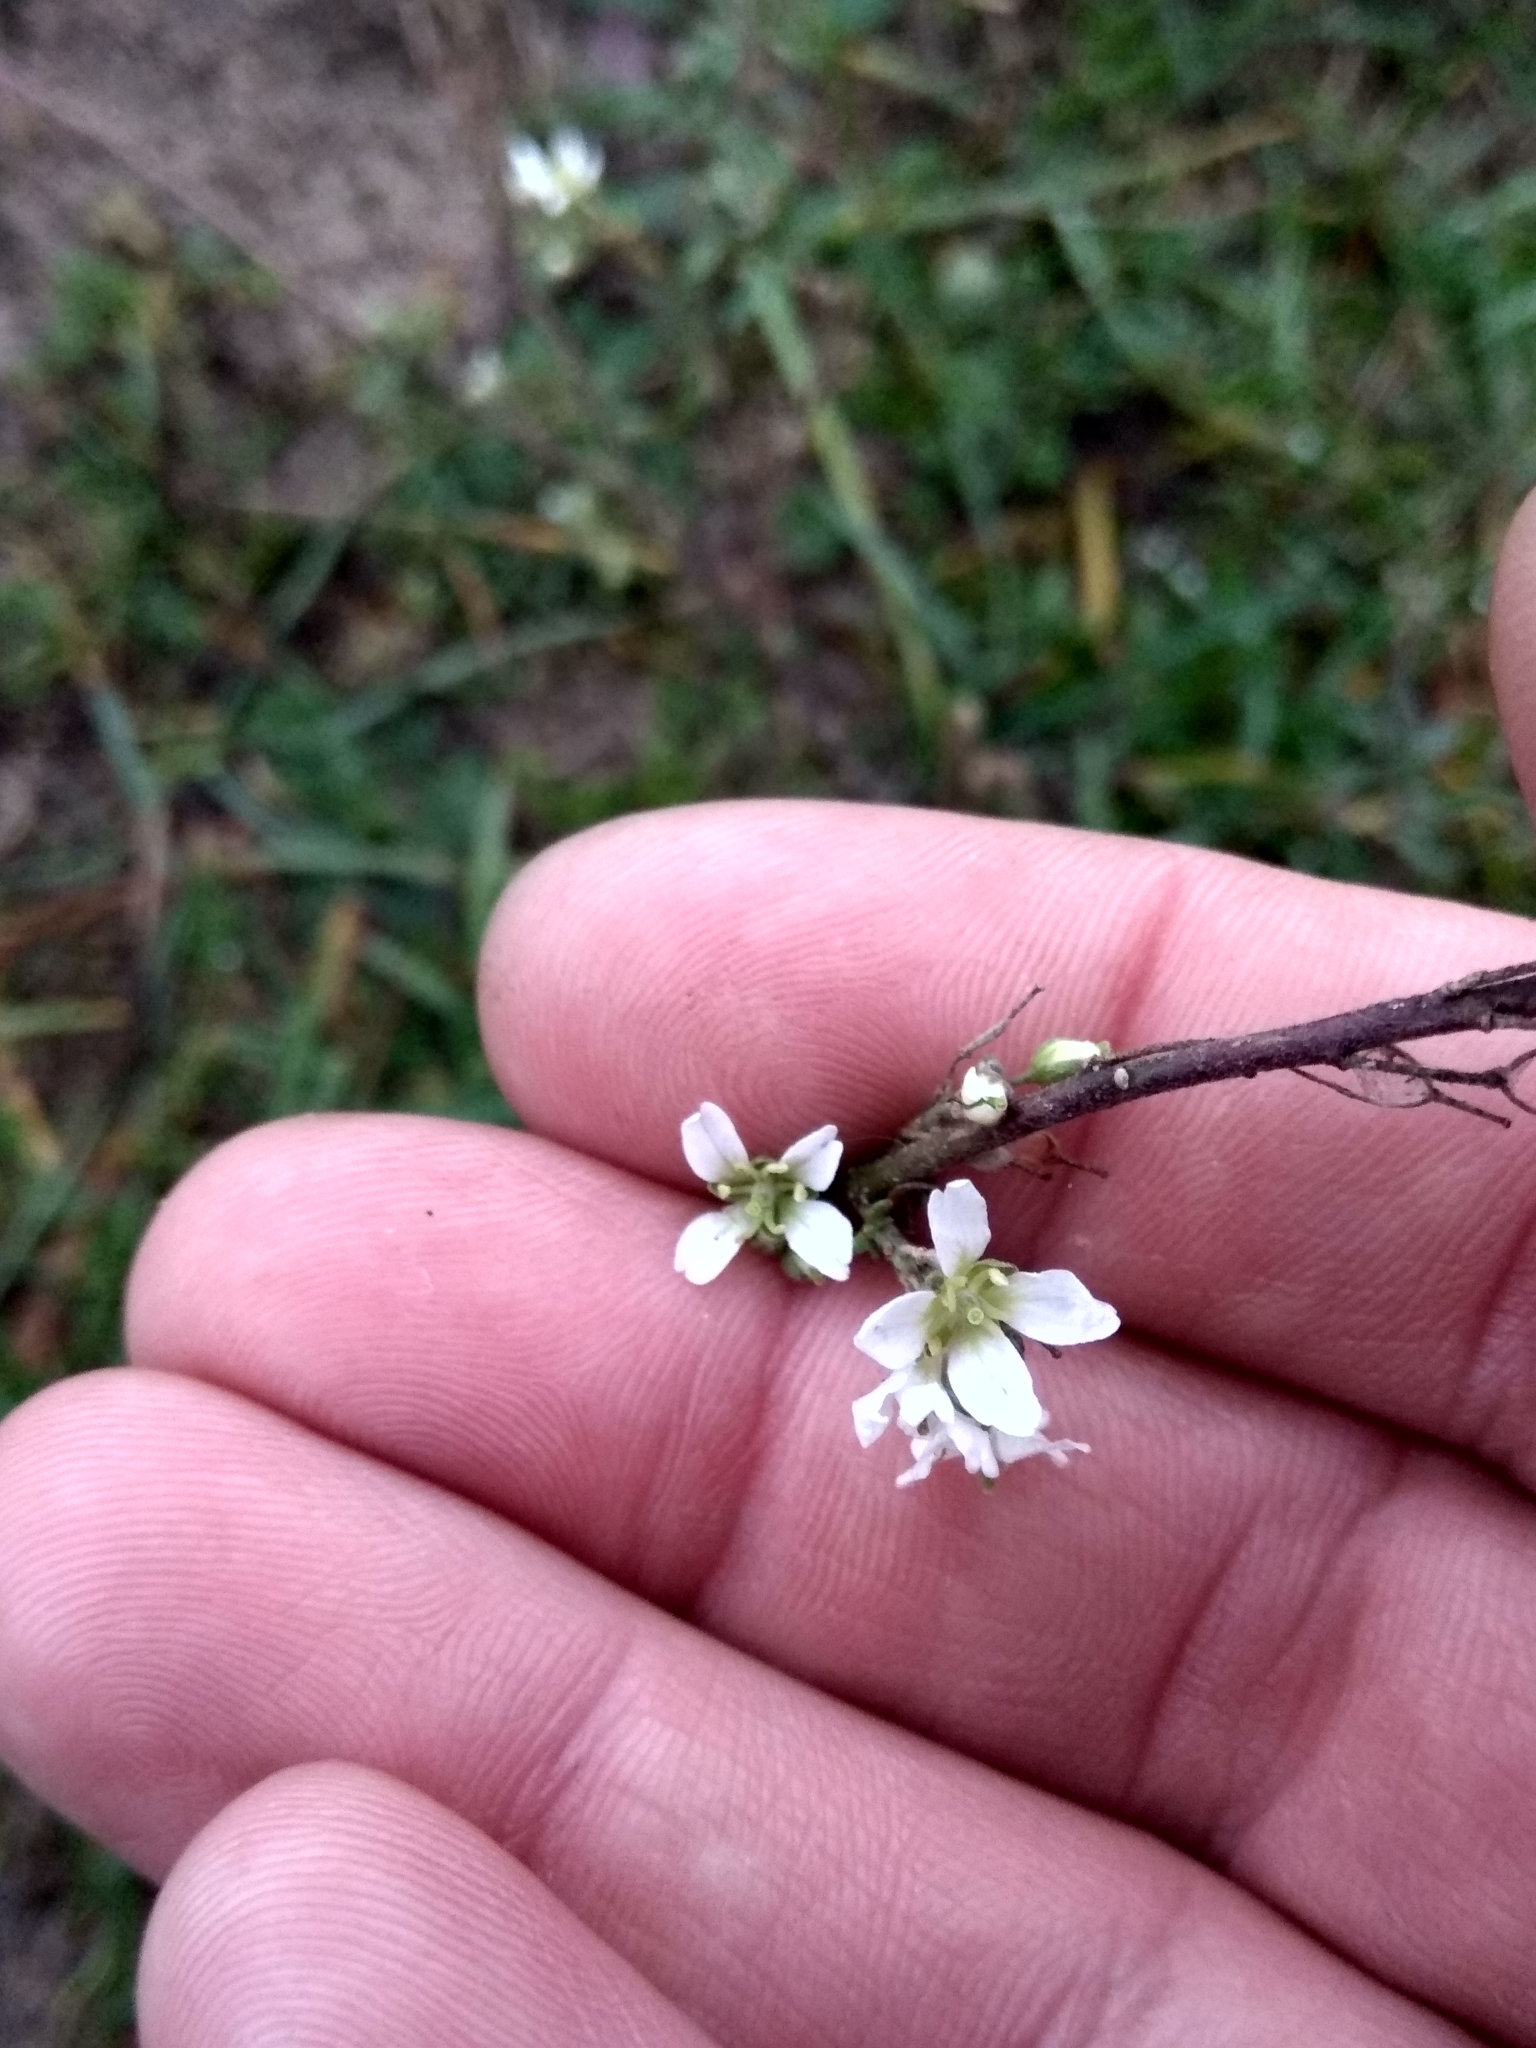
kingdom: Plantae
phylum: Tracheophyta
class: Magnoliopsida
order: Brassicales
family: Brassicaceae
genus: Berteroa
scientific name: Berteroa incana
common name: Hoary alison
